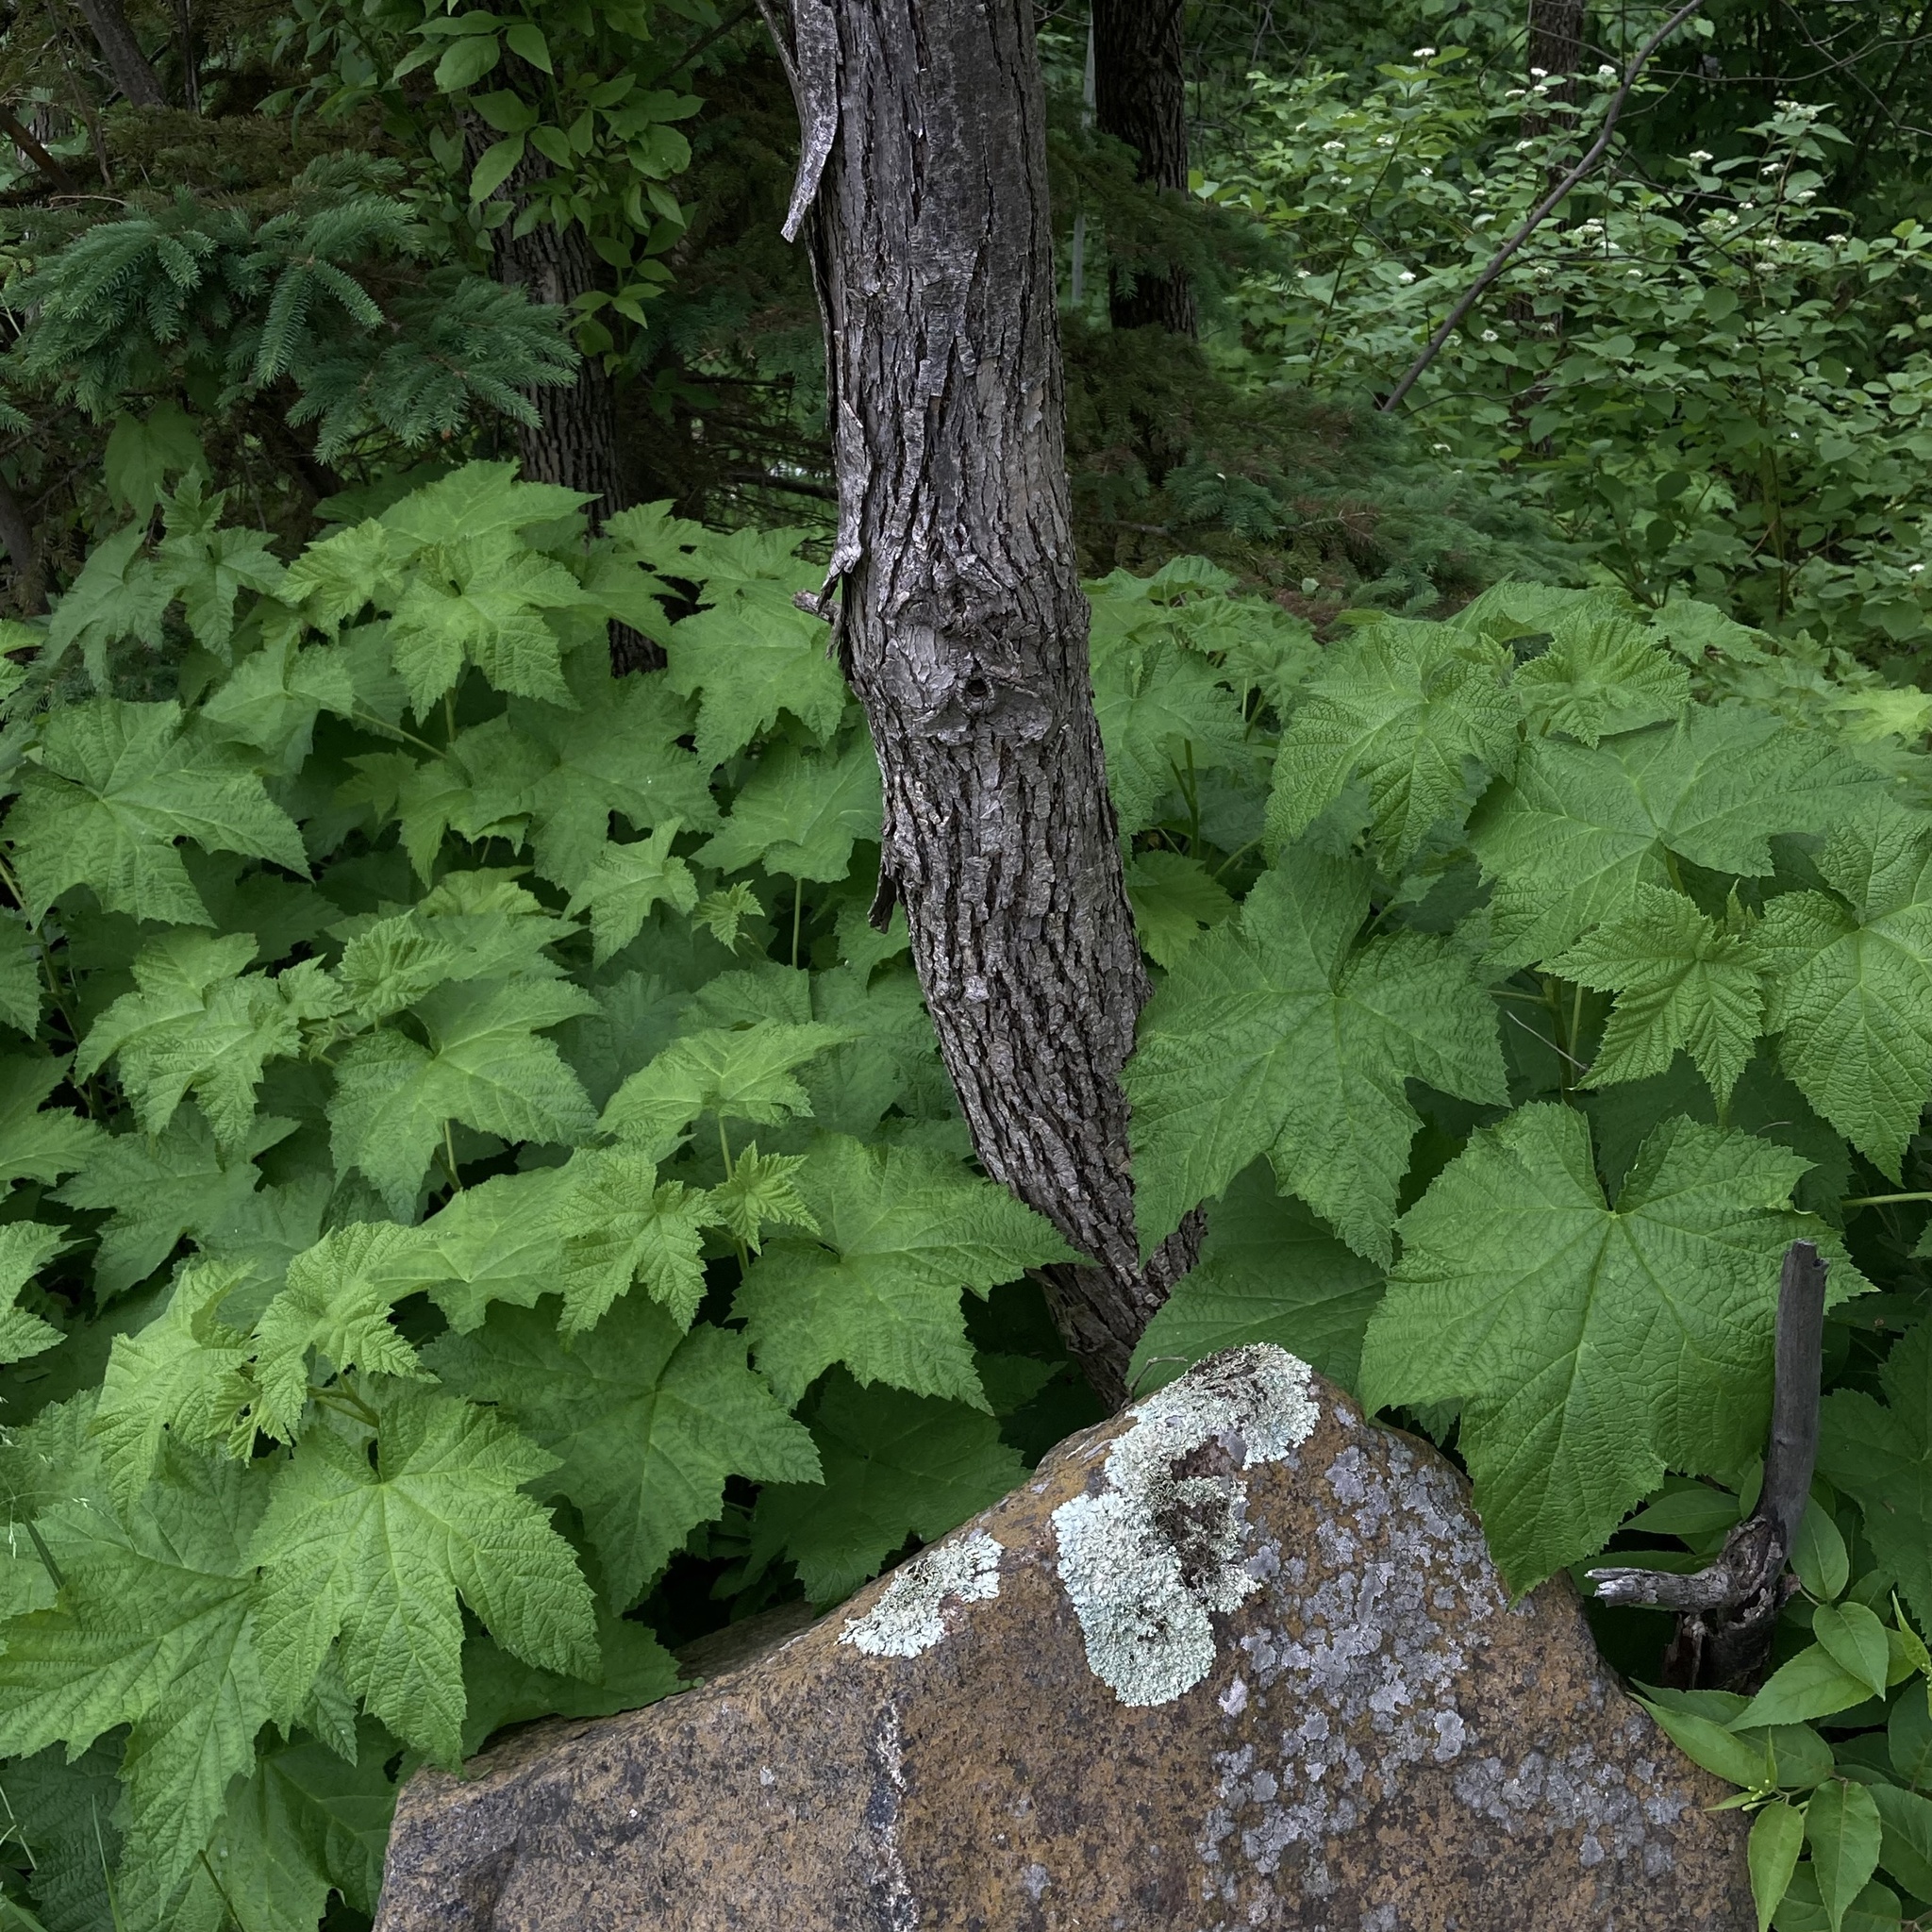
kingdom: Plantae
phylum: Tracheophyta
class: Magnoliopsida
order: Rosales
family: Rosaceae
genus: Rubus
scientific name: Rubus parviflorus
